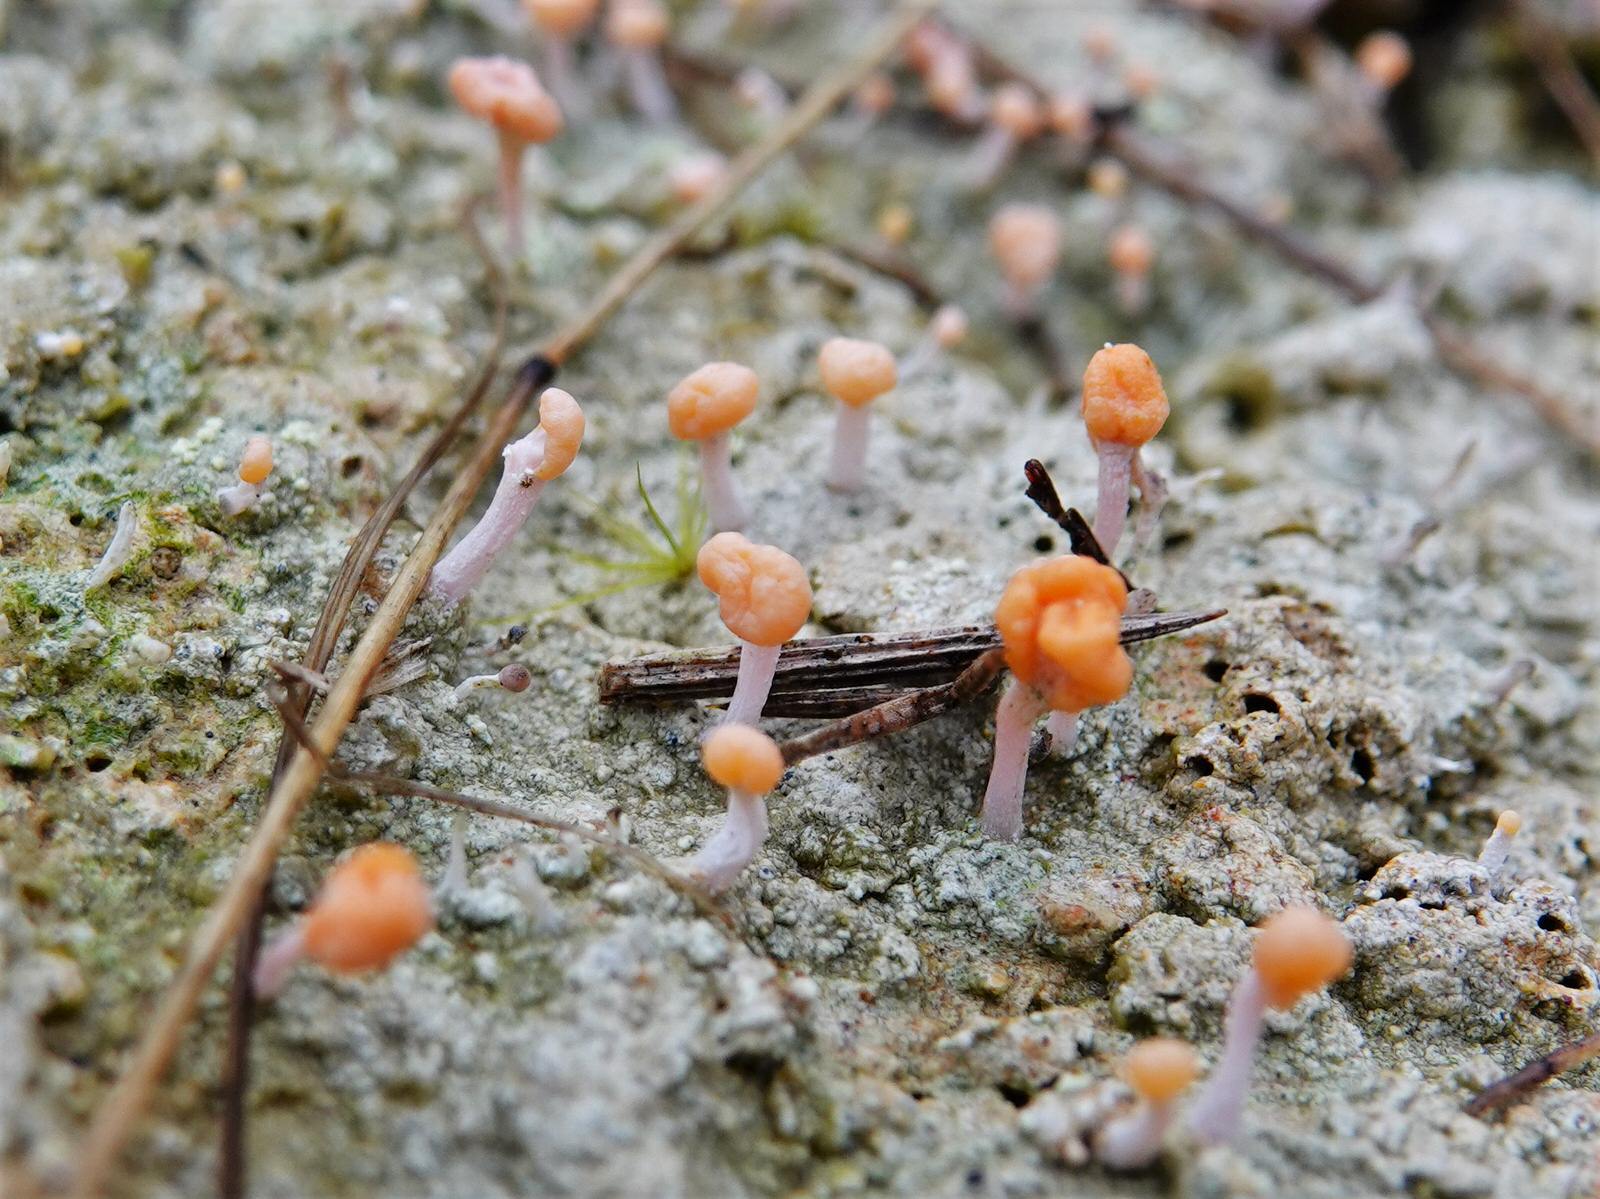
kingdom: Fungi
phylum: Ascomycota
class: Lecanoromycetes
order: Pertusariales
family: Icmadophilaceae
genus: Dibaeis
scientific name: Dibaeis arcuata
